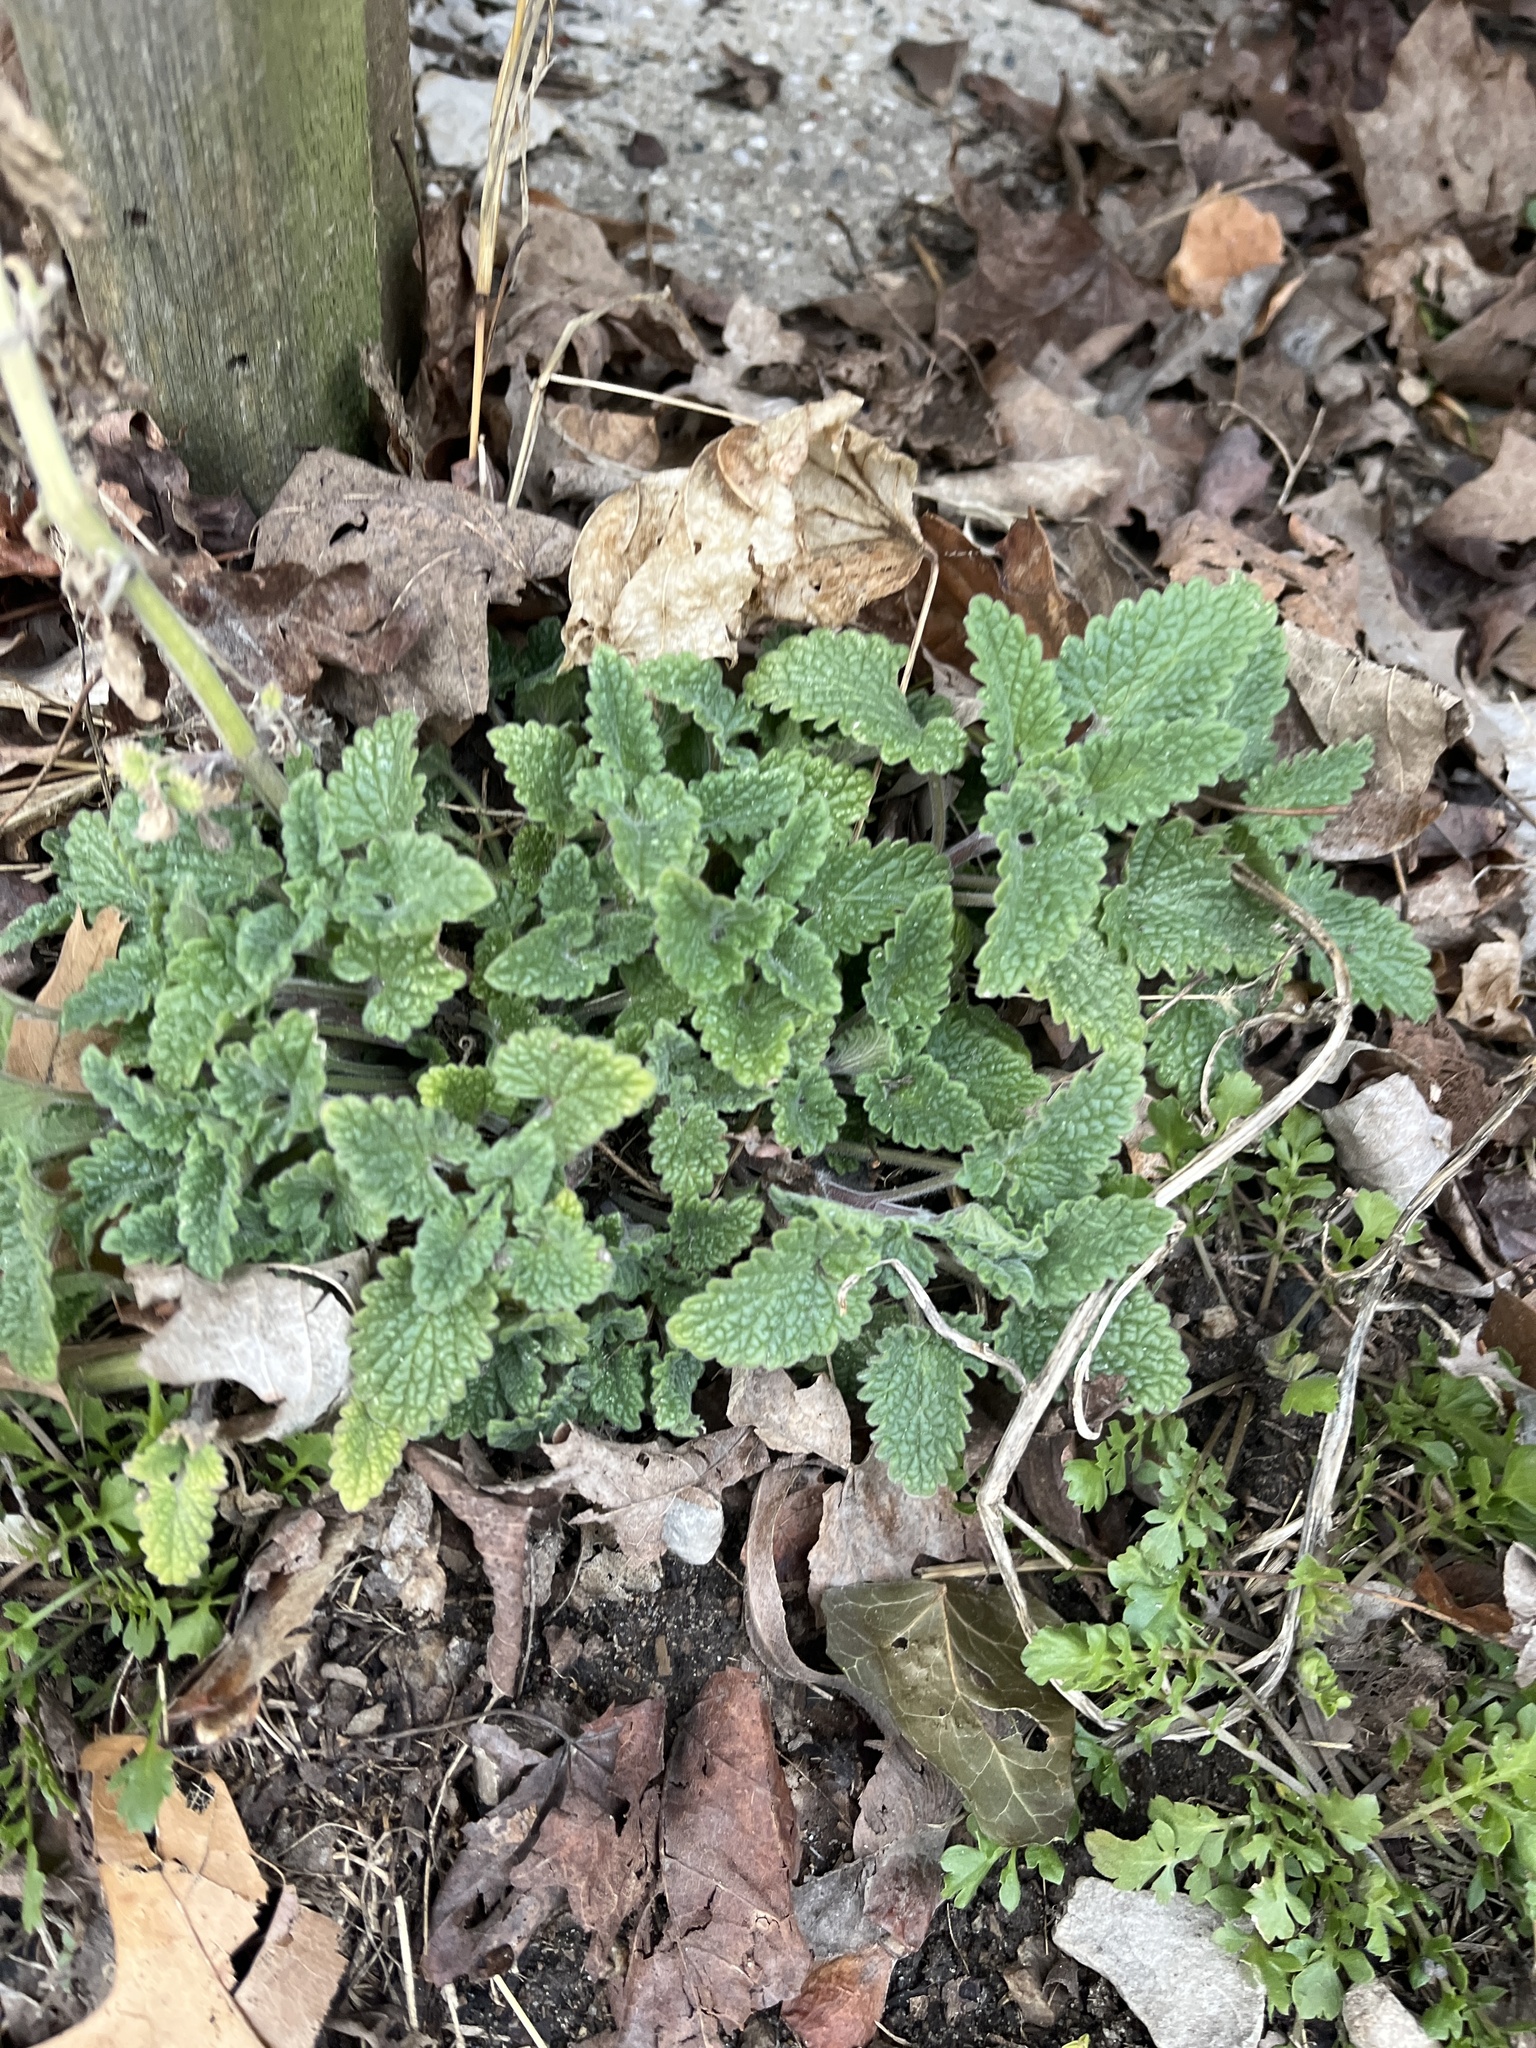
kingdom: Plantae
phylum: Tracheophyta
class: Magnoliopsida
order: Lamiales
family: Lamiaceae
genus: Nepeta
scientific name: Nepeta cataria
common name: Catnip
